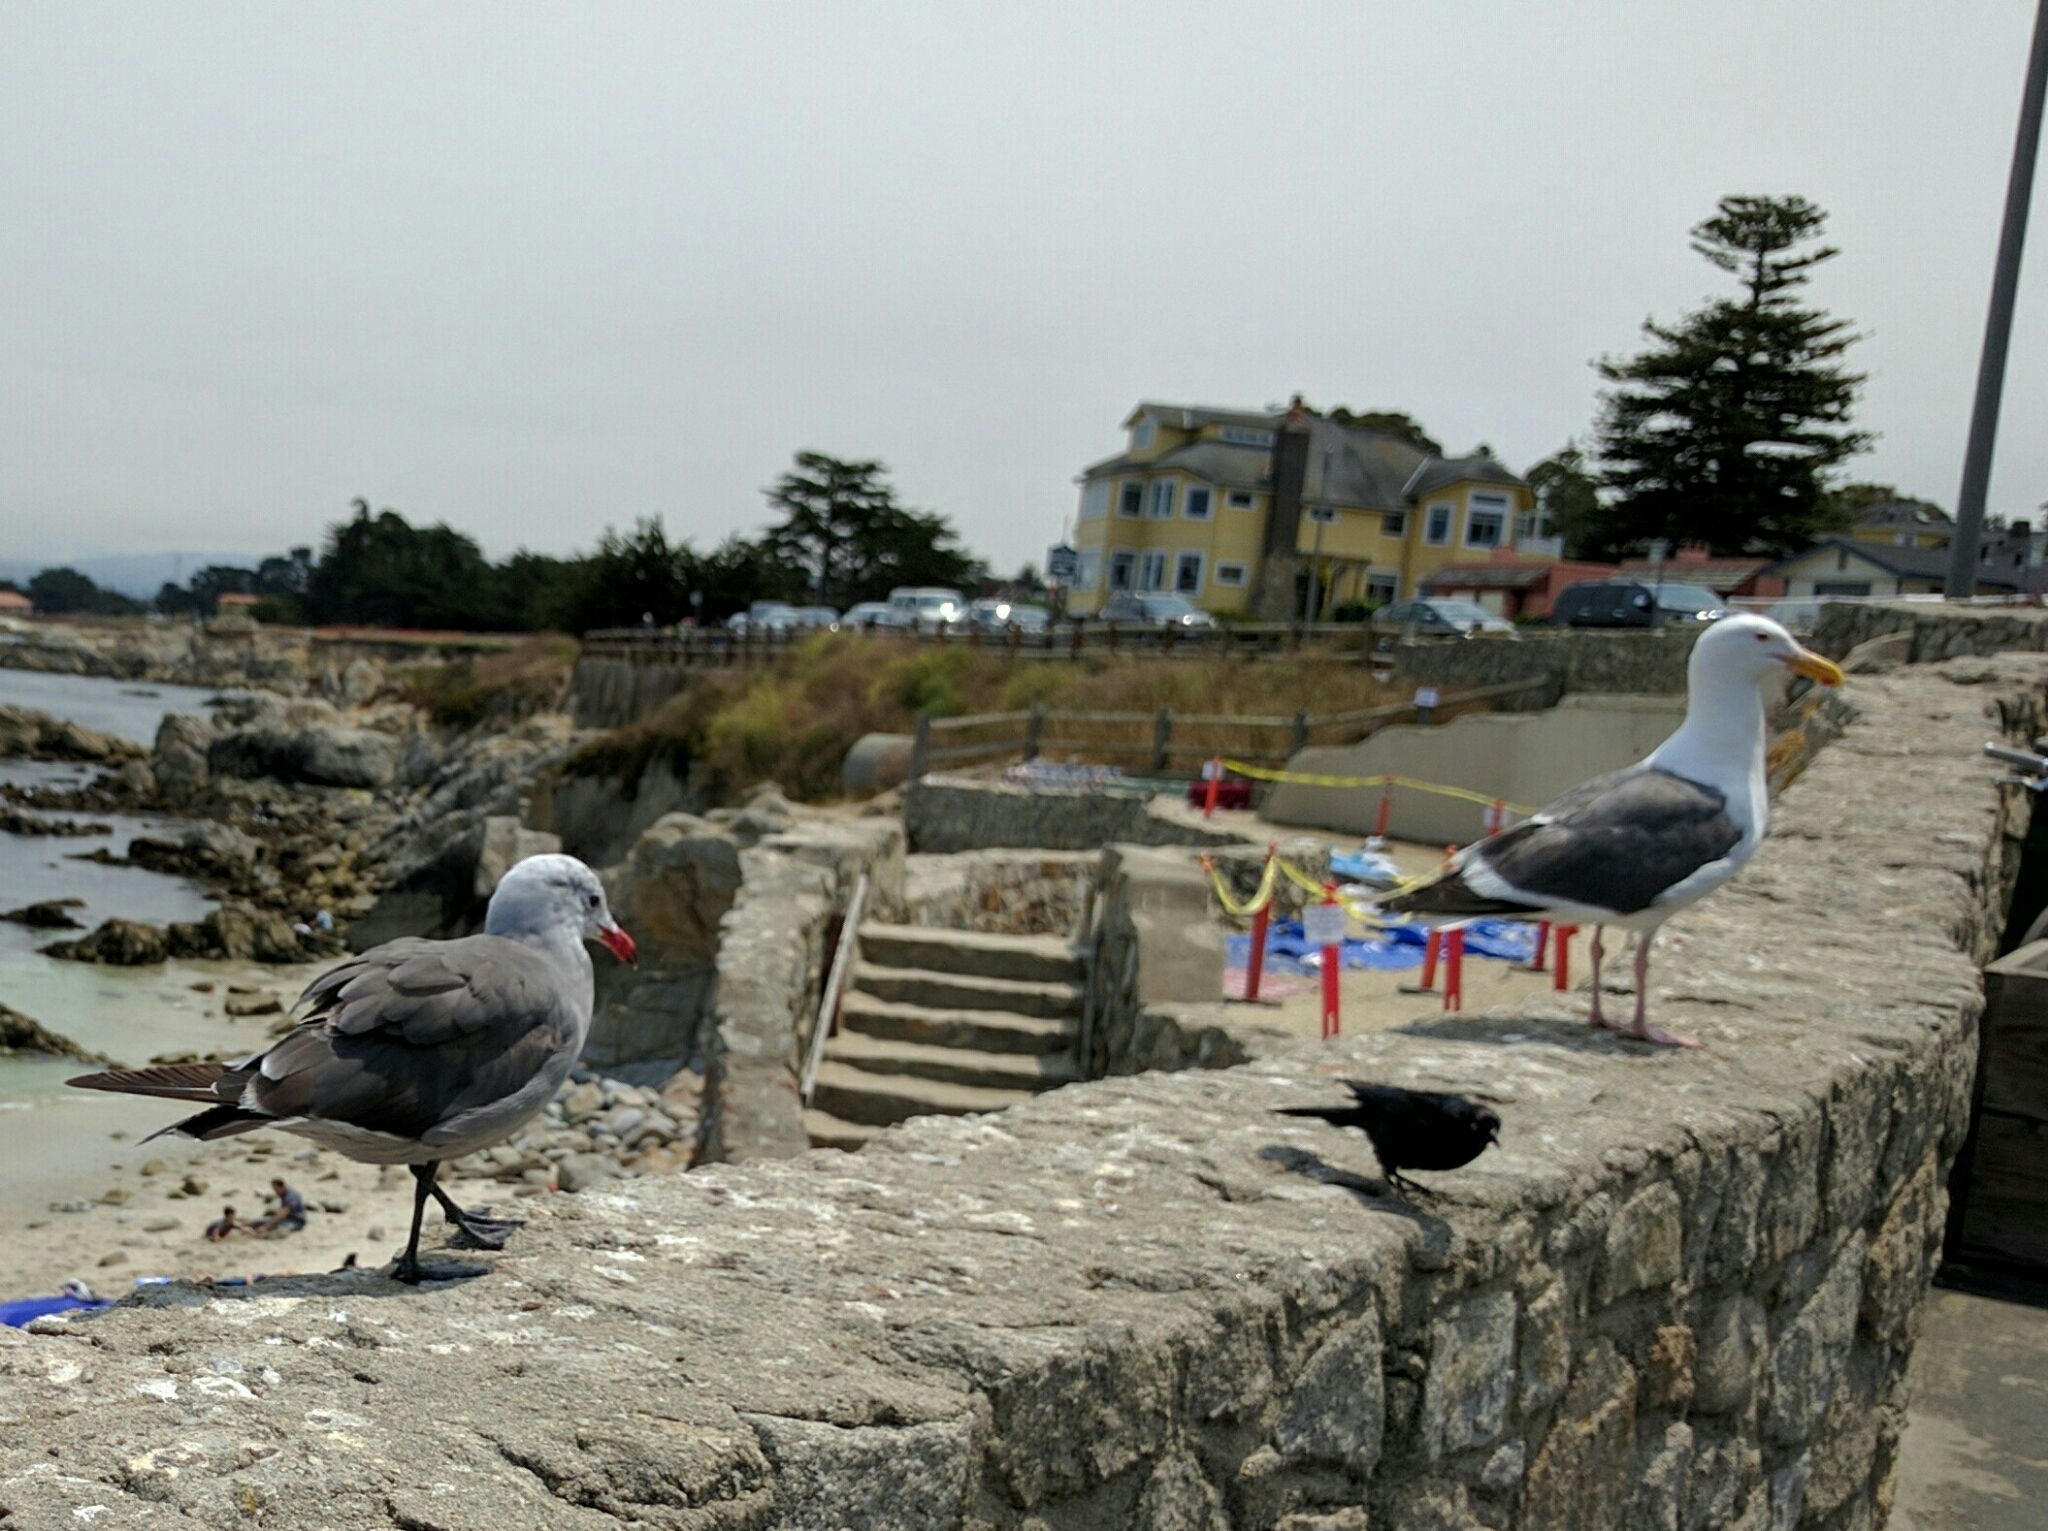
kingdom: Animalia
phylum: Chordata
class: Aves
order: Charadriiformes
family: Laridae
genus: Larus
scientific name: Larus heermanni
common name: Heermann's gull
